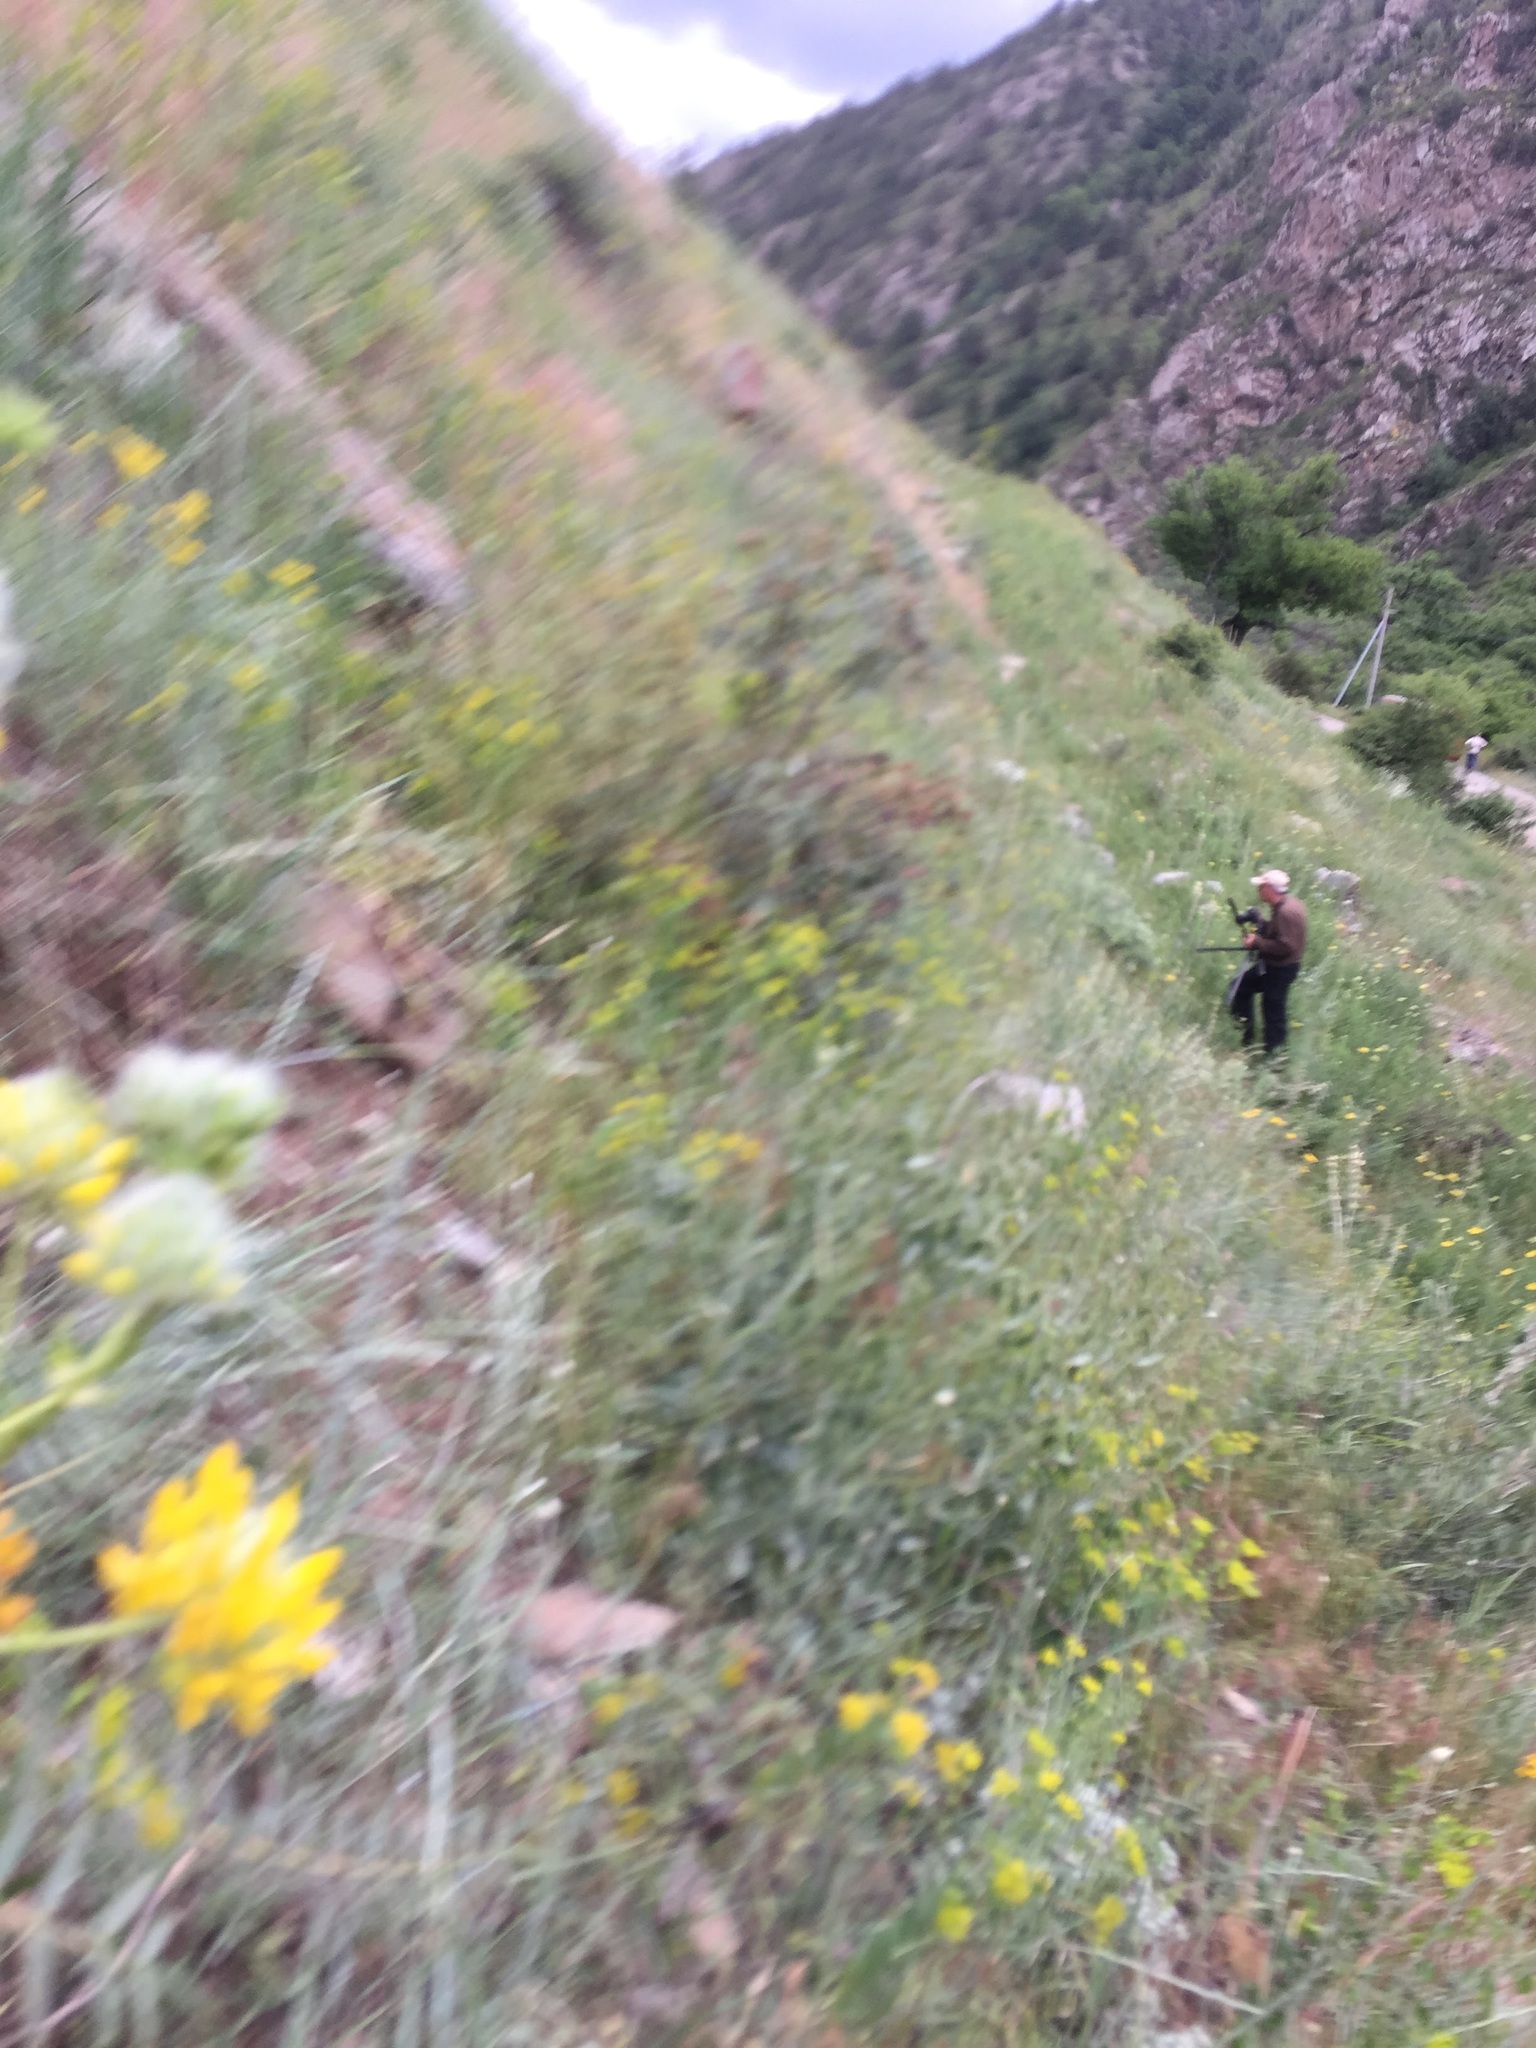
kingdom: Plantae
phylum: Tracheophyta
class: Magnoliopsida
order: Fabales
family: Fabaceae
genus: Astragalus
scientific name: Astragalus macrocephalus
